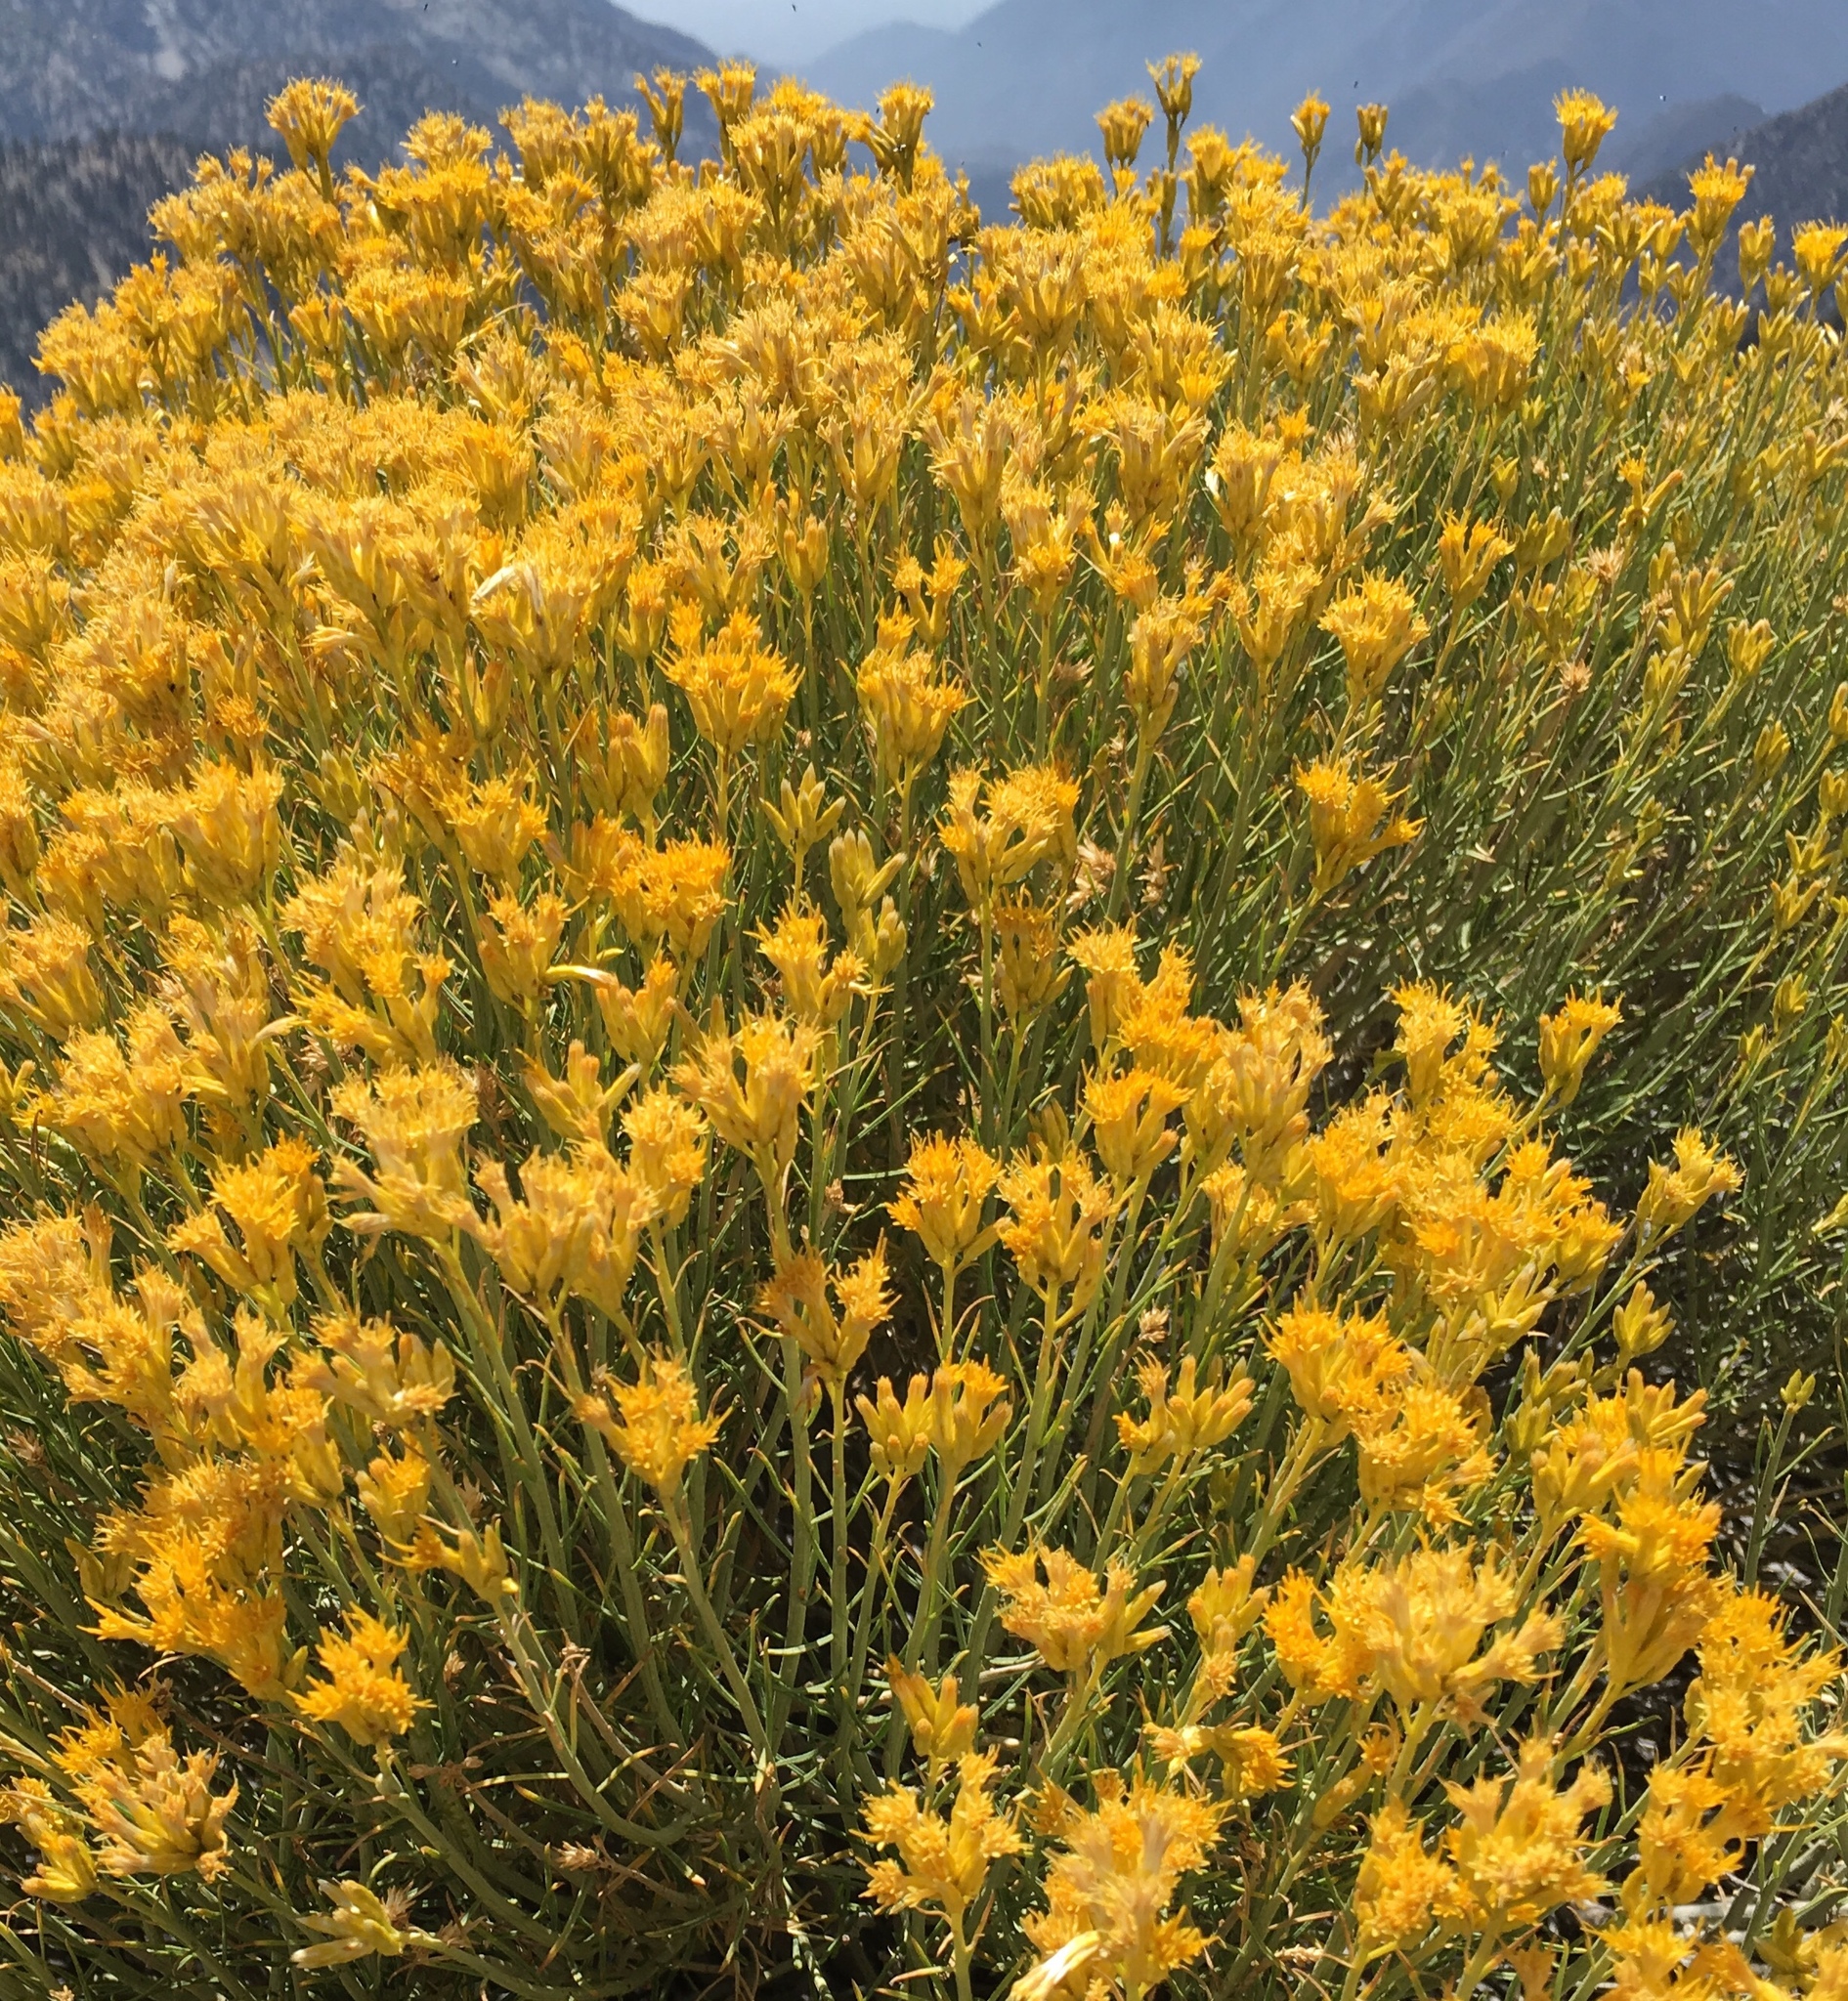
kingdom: Plantae
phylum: Tracheophyta
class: Magnoliopsida
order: Asterales
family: Asteraceae
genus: Ericameria
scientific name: Ericameria nauseosa
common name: Rubber rabbitbrush
